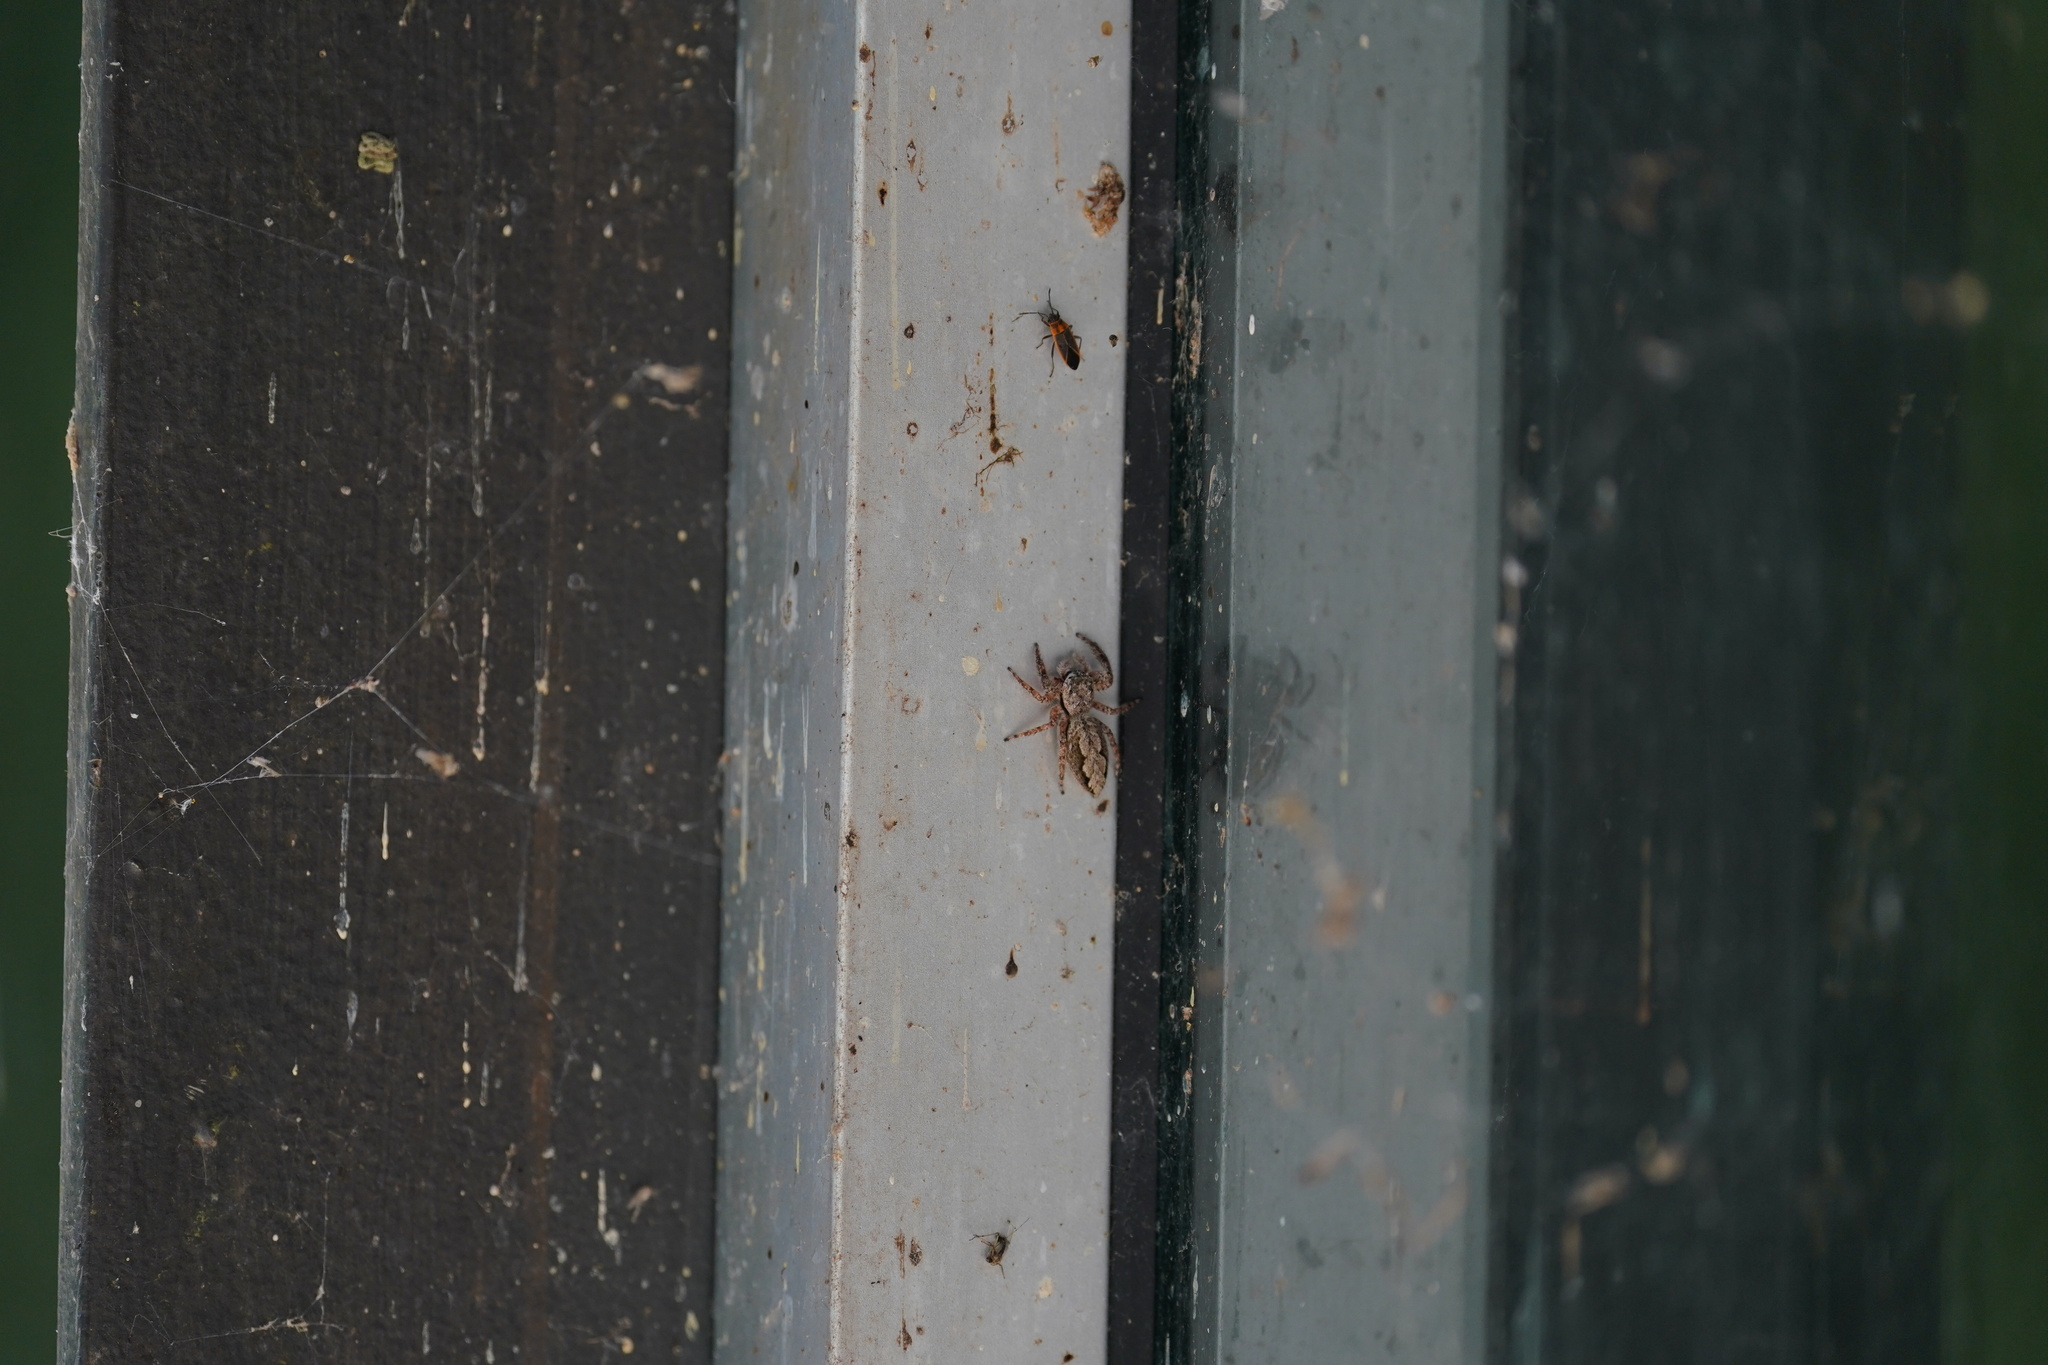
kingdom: Animalia
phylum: Arthropoda
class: Arachnida
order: Araneae
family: Salticidae
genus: Platycryptus
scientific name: Platycryptus undatus
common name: Tan jumping spider
